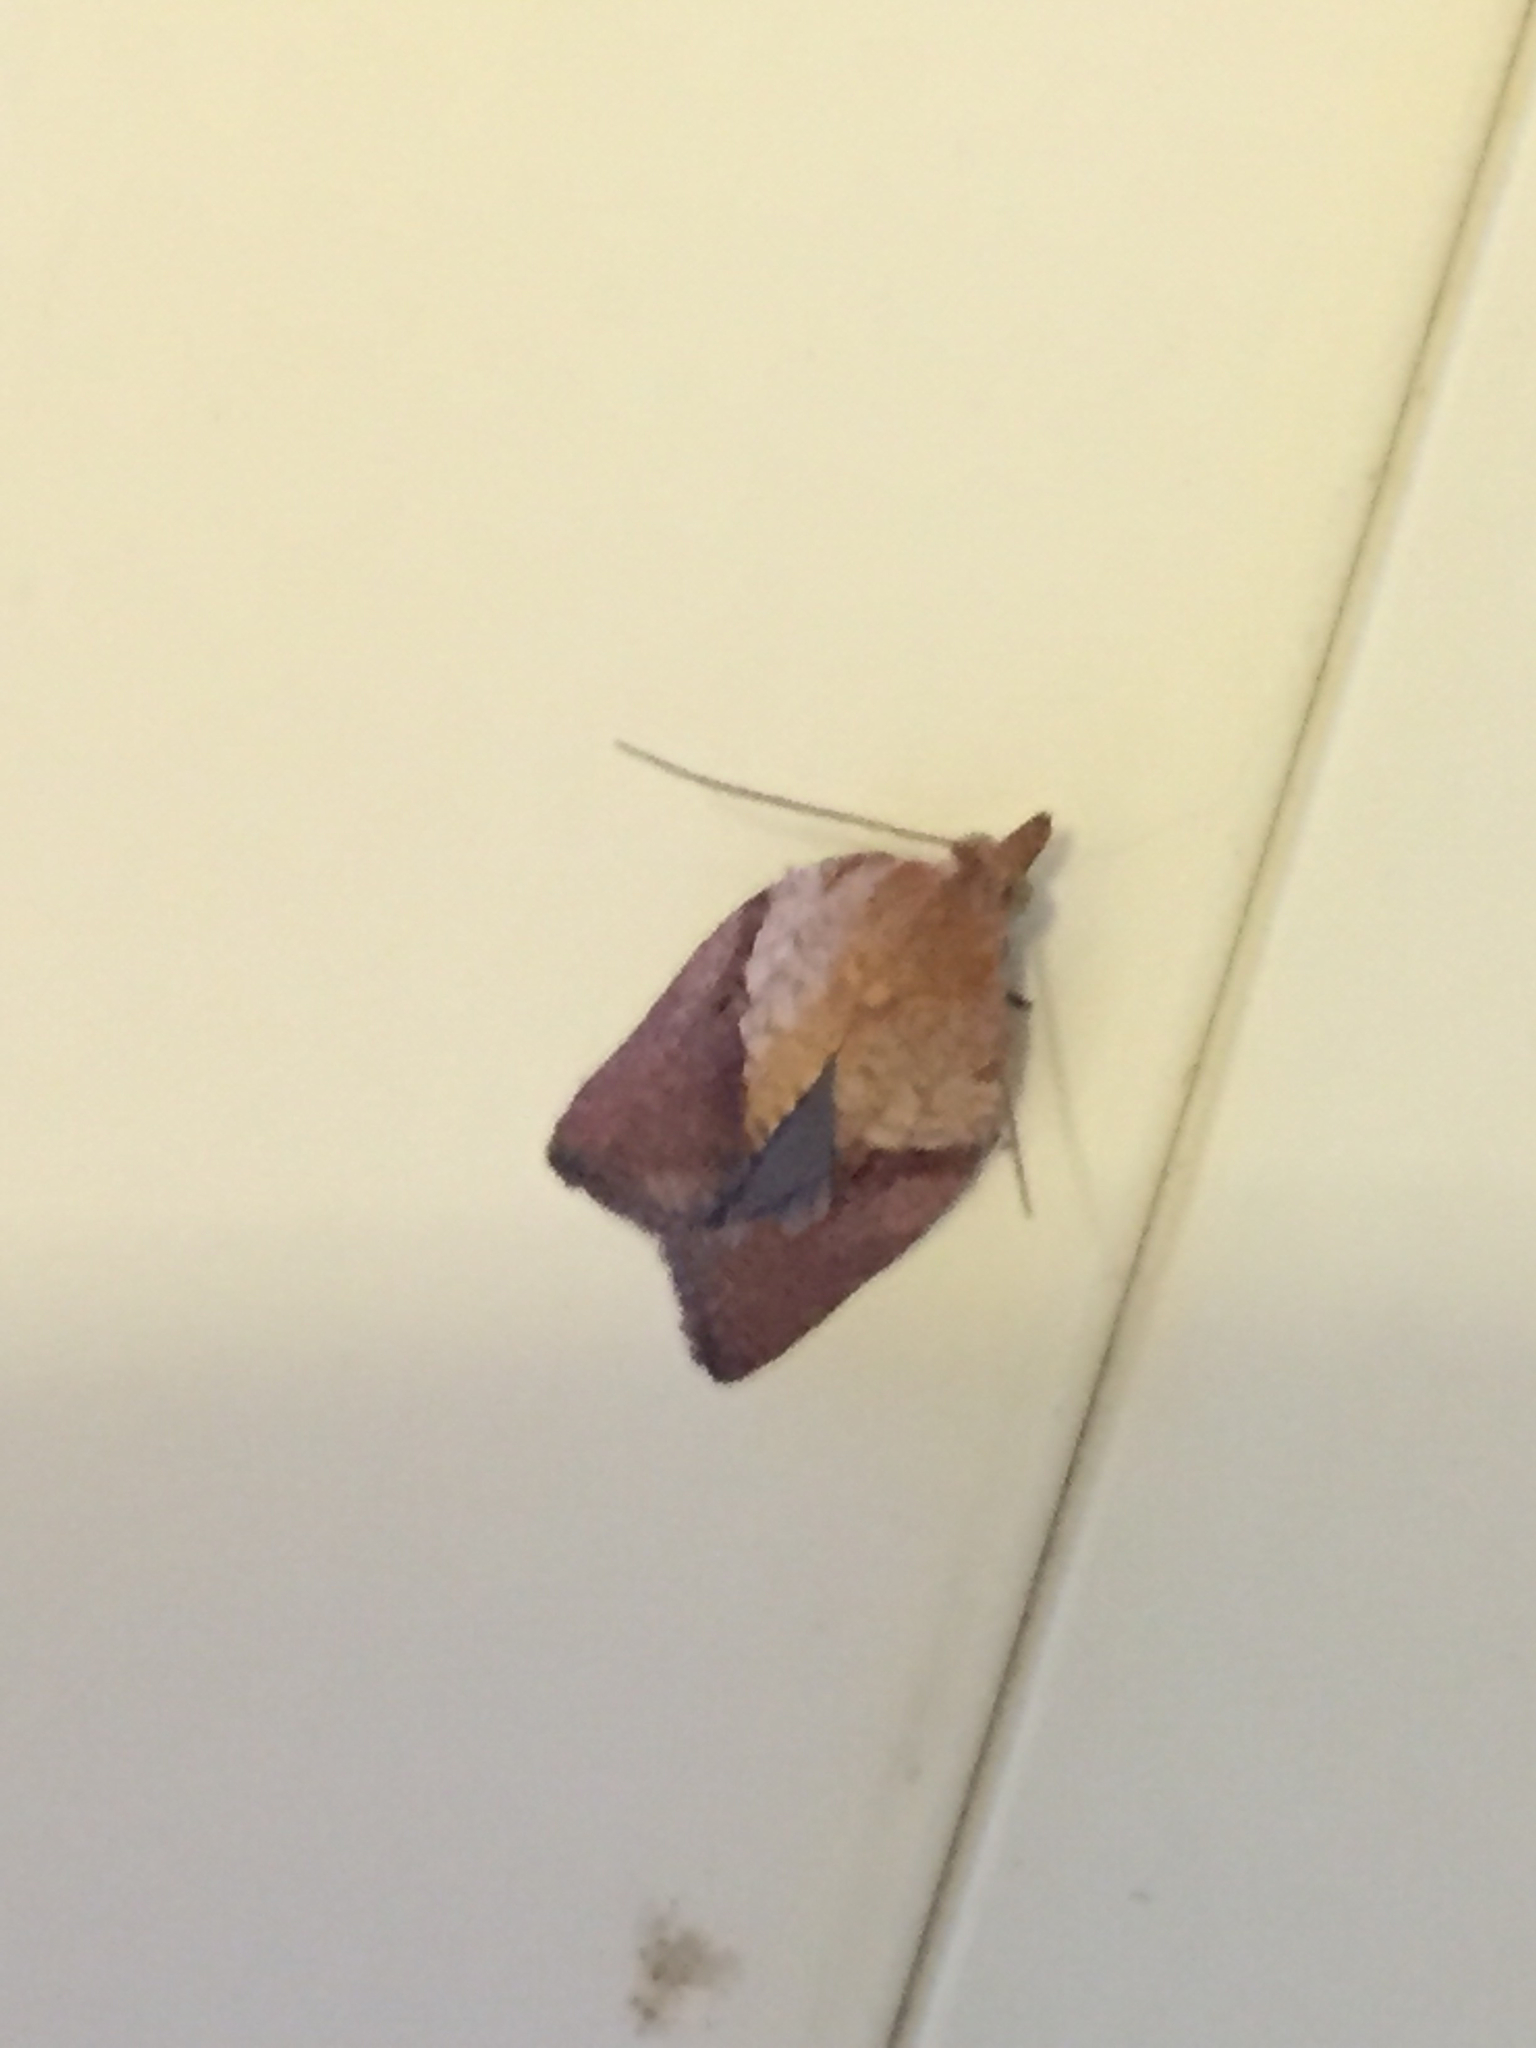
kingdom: Animalia
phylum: Arthropoda
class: Insecta
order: Lepidoptera
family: Tortricidae
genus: Epiphyas
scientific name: Epiphyas postvittana
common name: Light brown apple moth
